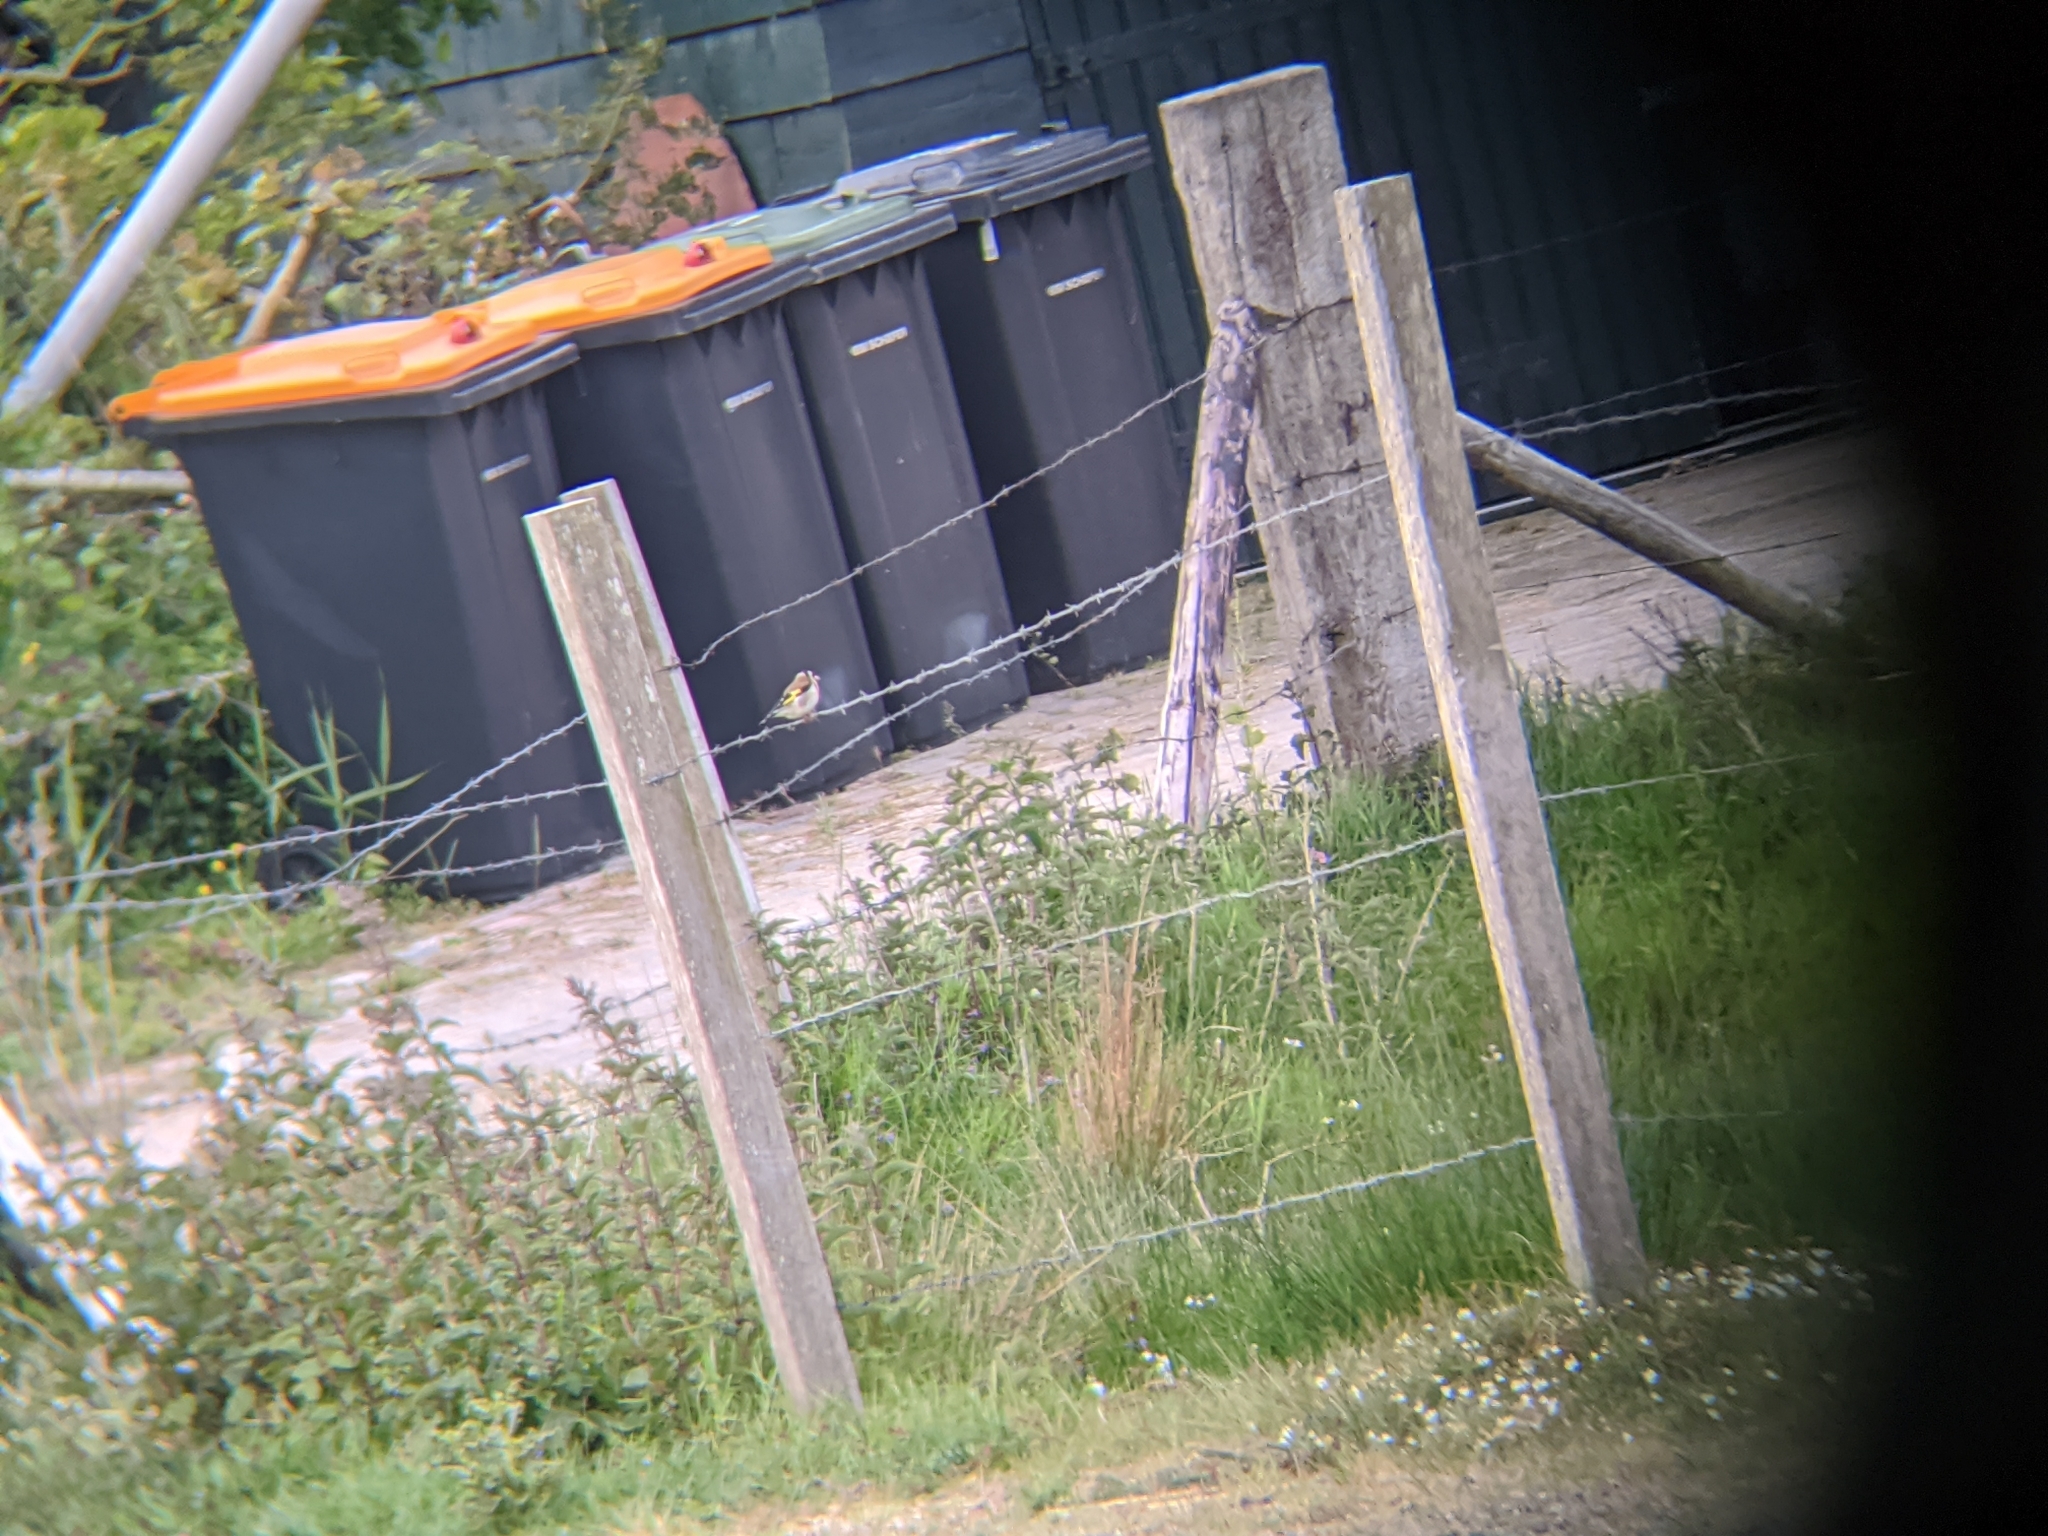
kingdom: Animalia
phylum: Chordata
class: Aves
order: Passeriformes
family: Fringillidae
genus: Carduelis
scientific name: Carduelis carduelis
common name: European goldfinch
